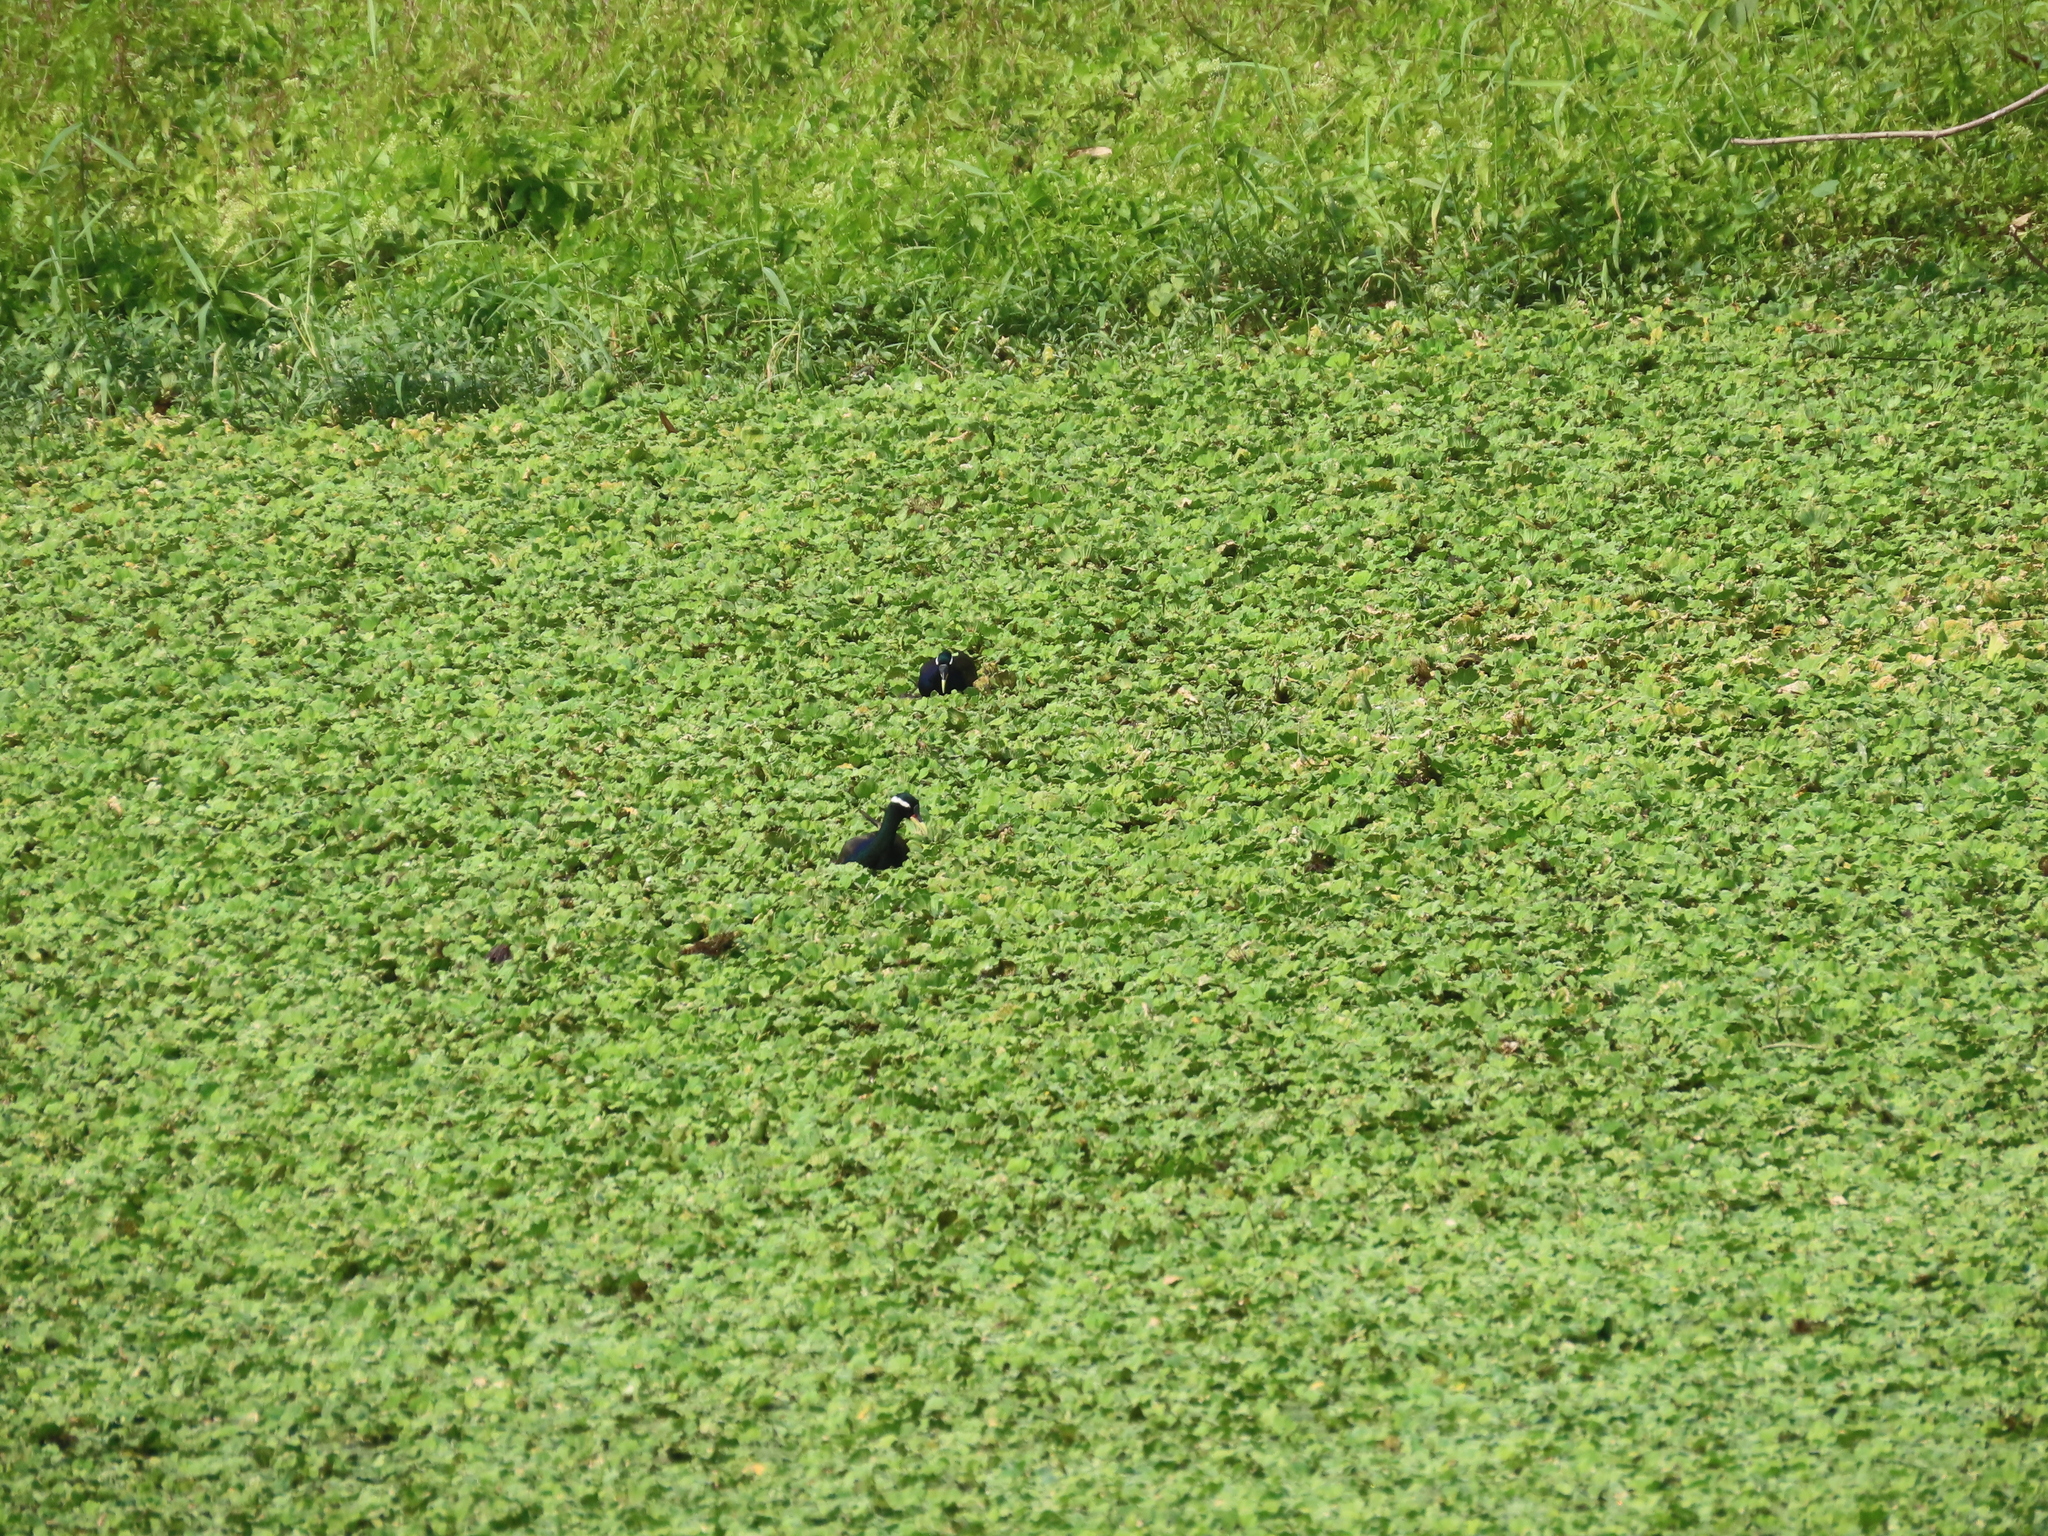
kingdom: Animalia
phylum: Chordata
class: Aves
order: Charadriiformes
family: Jacanidae
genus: Metopidius
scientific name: Metopidius indicus
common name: Bronze-winged jacana
